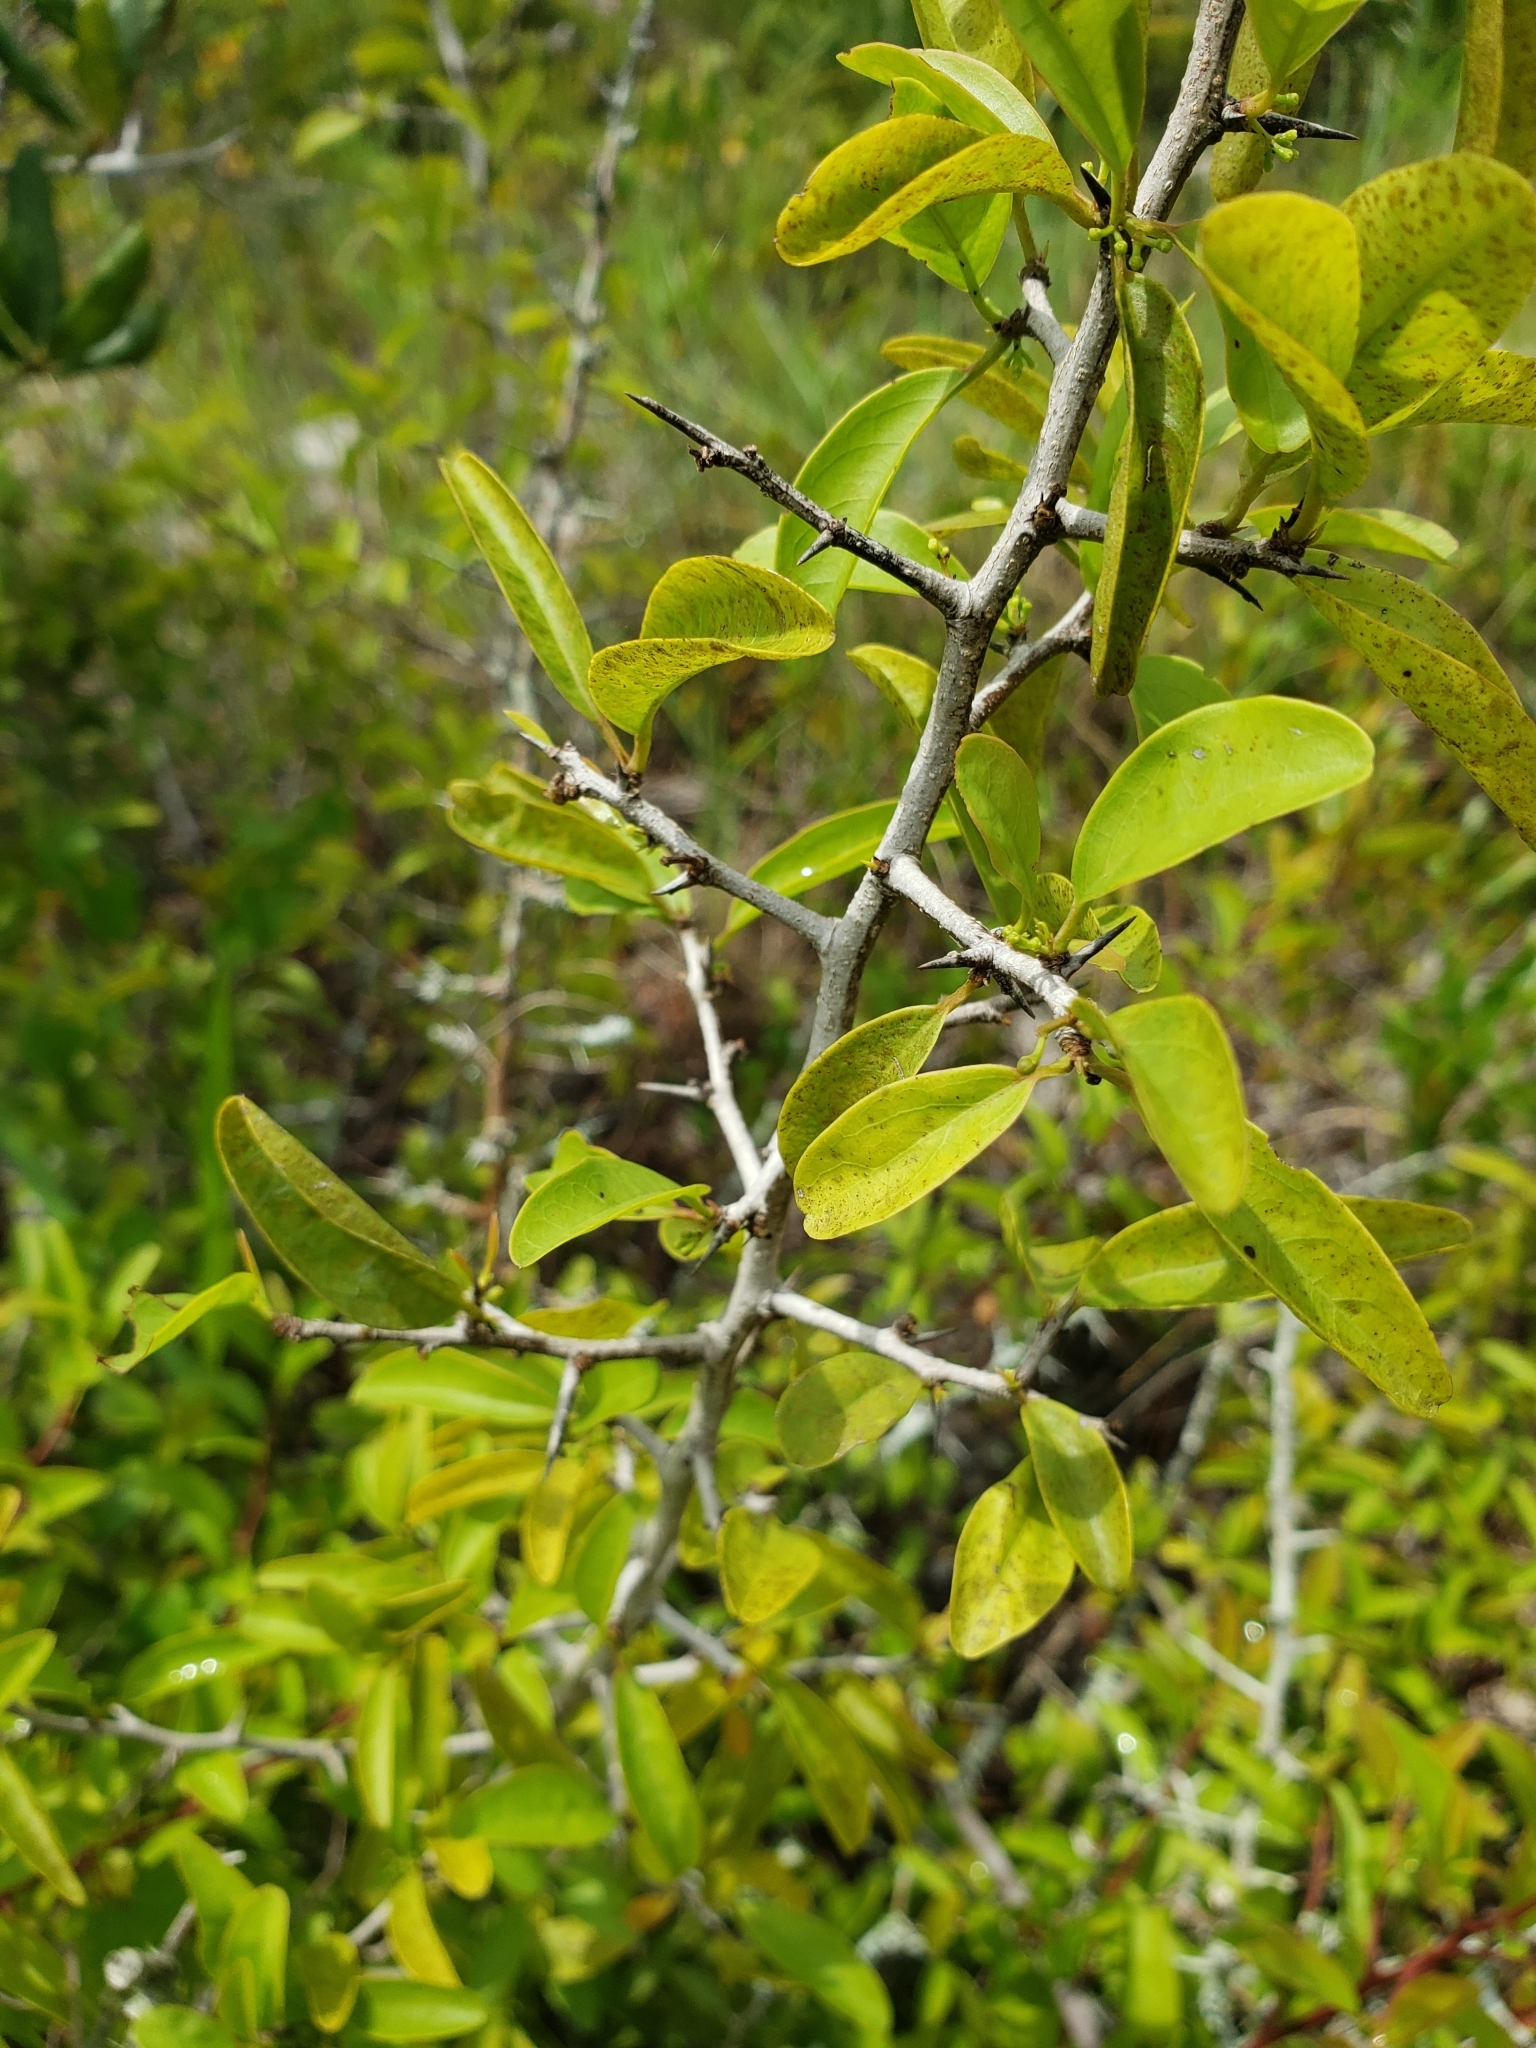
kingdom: Plantae
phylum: Tracheophyta
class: Magnoliopsida
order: Santalales
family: Ximeniaceae
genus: Ximenia
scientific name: Ximenia americana
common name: Tallowwood
